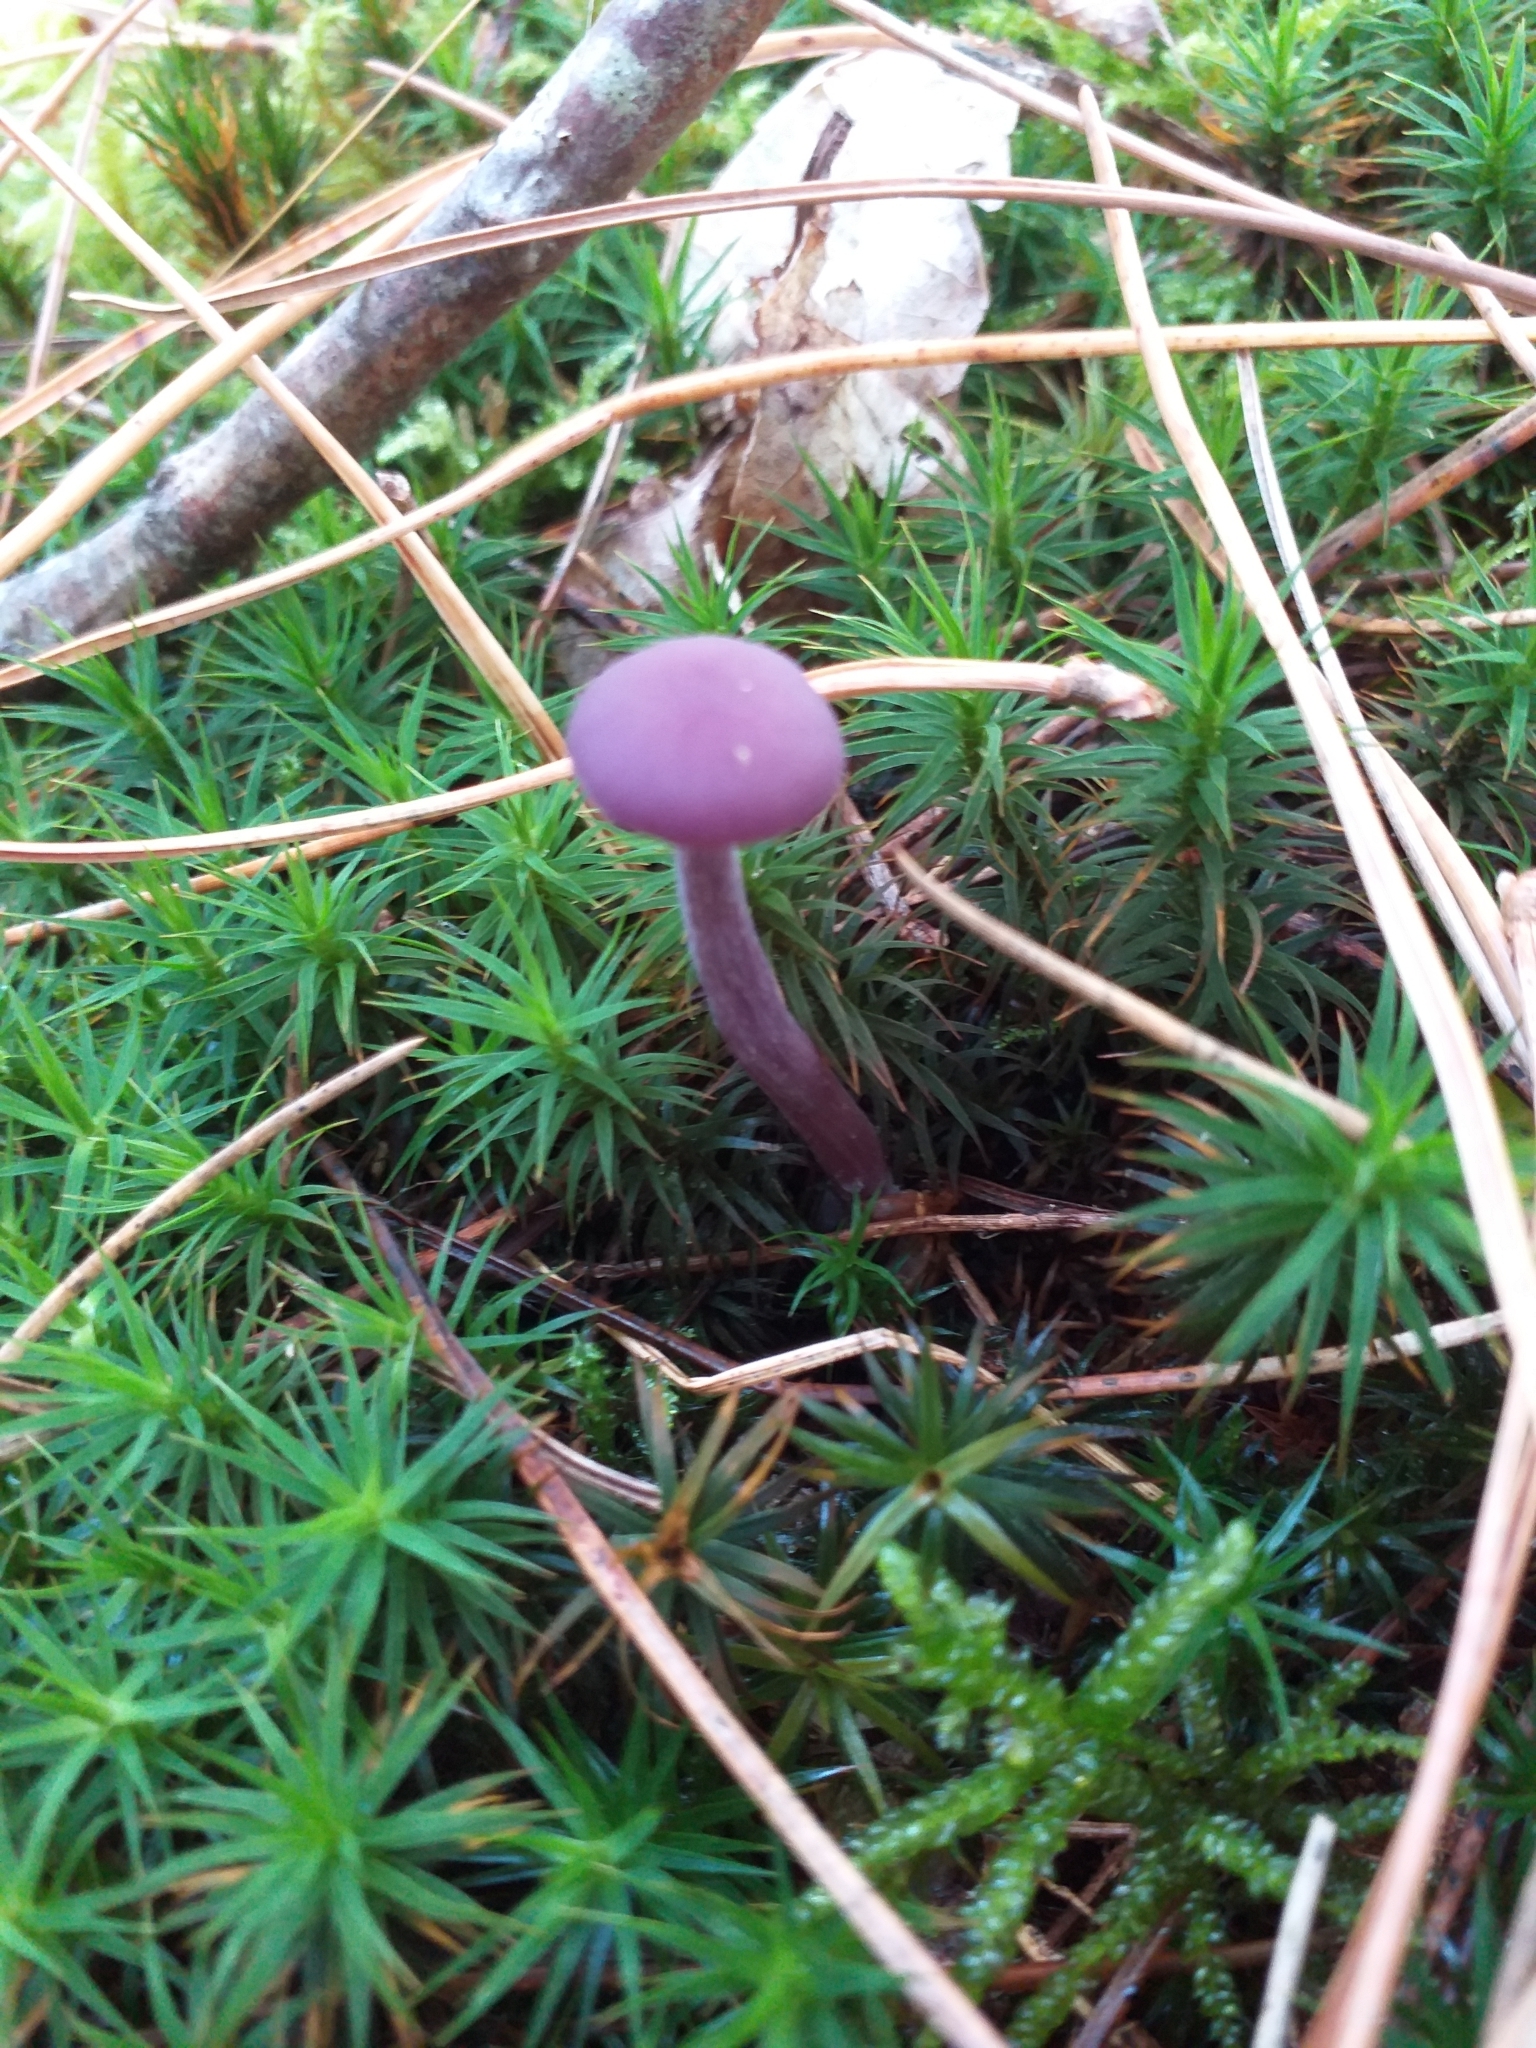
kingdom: Fungi
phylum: Basidiomycota
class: Agaricomycetes
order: Agaricales
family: Hydnangiaceae
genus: Laccaria
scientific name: Laccaria amethystina
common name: Amethyst deceiver
